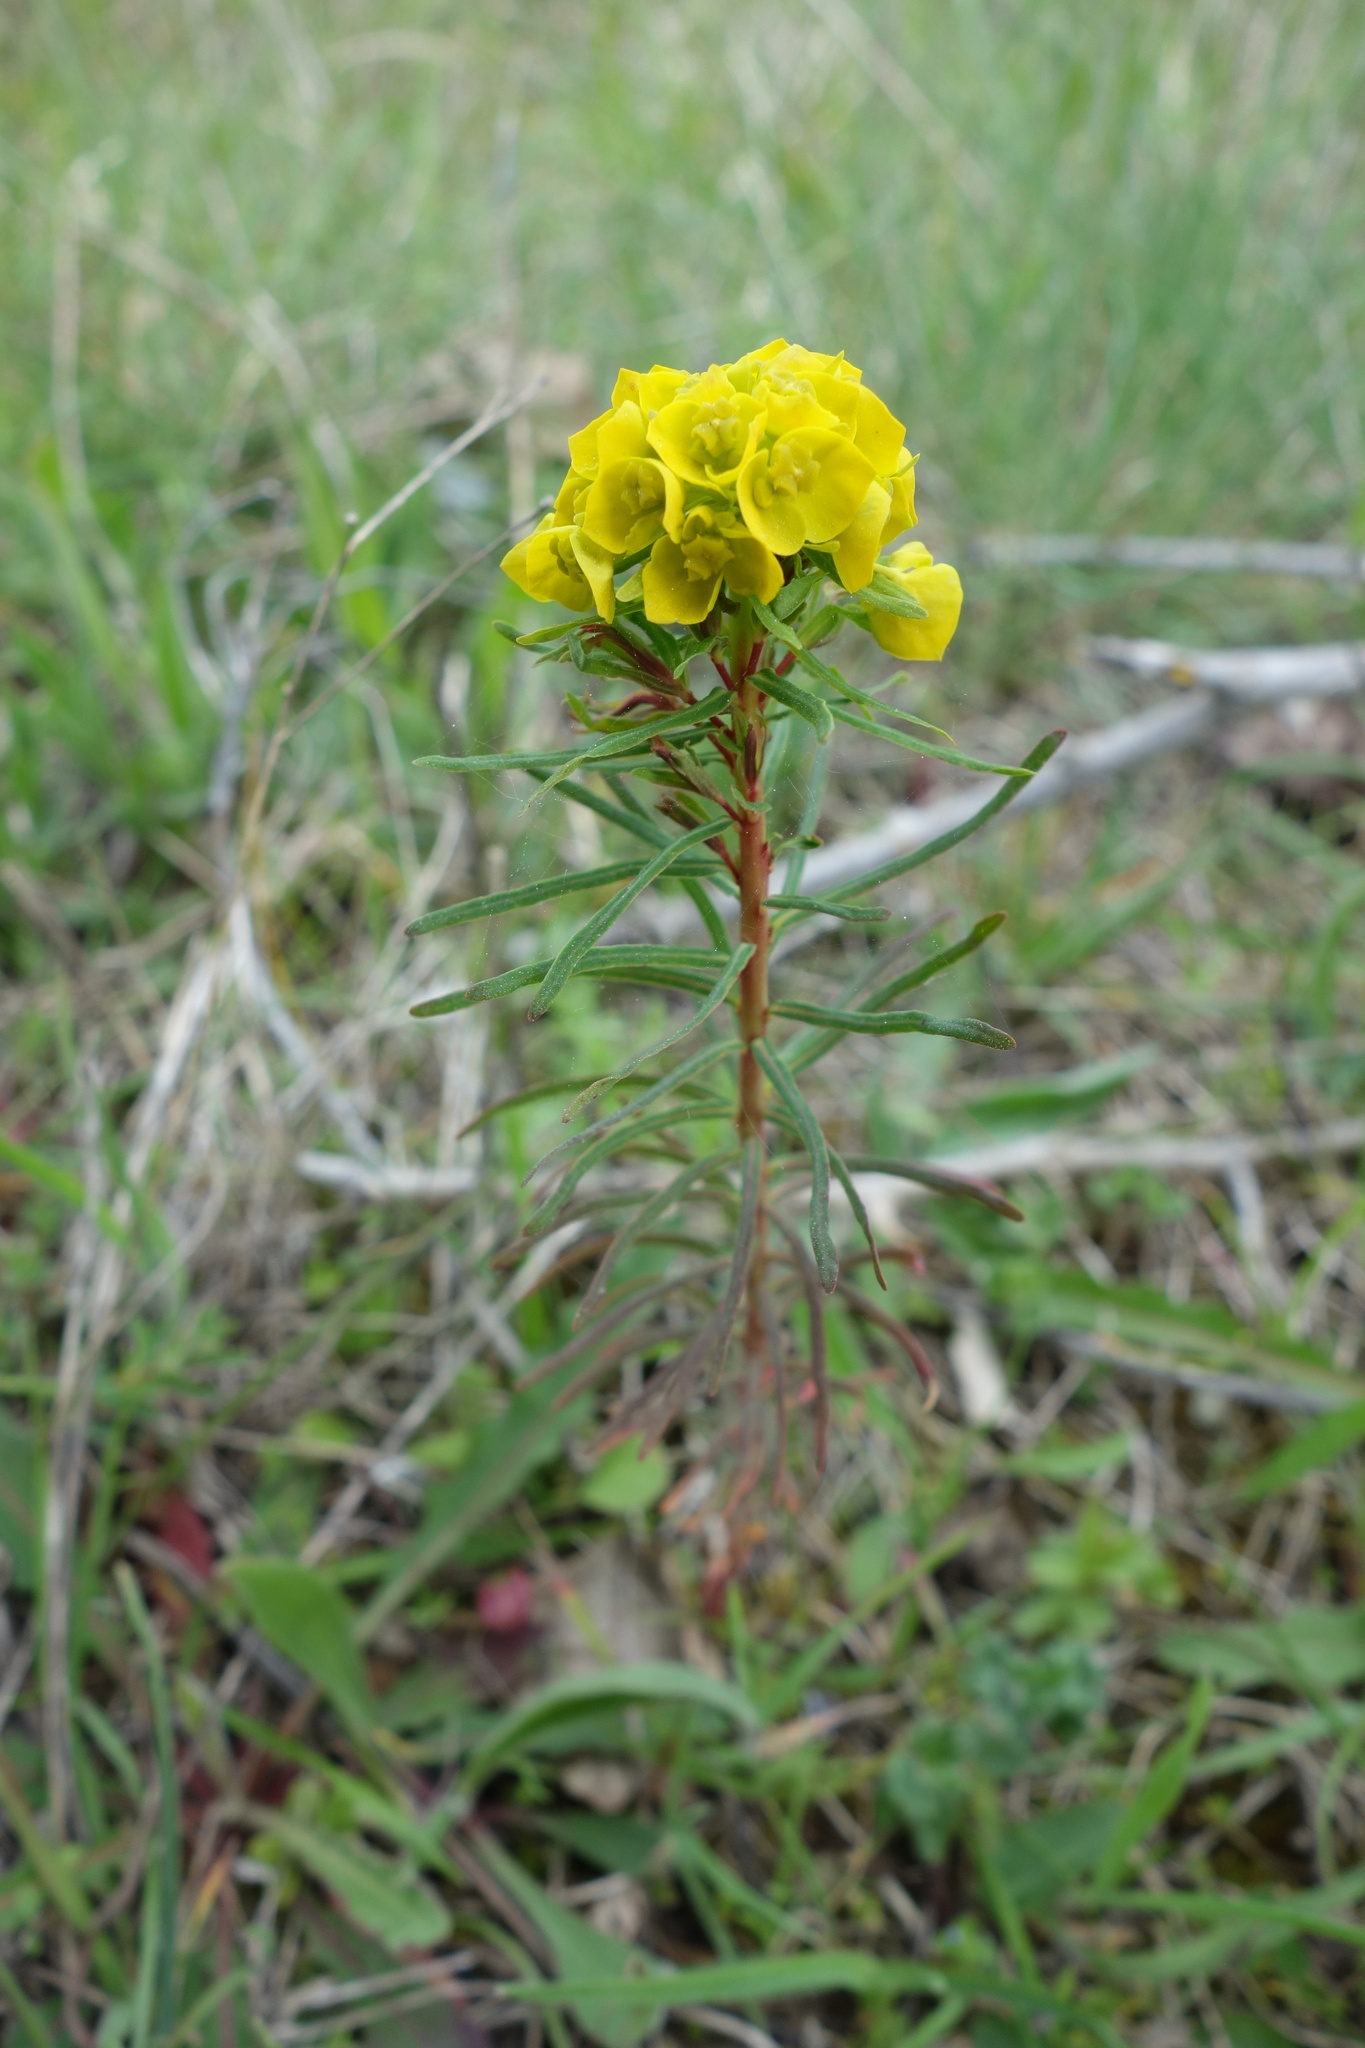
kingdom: Plantae
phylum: Tracheophyta
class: Magnoliopsida
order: Malpighiales
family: Euphorbiaceae
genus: Euphorbia
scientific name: Euphorbia cyparissias
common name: Cypress spurge
